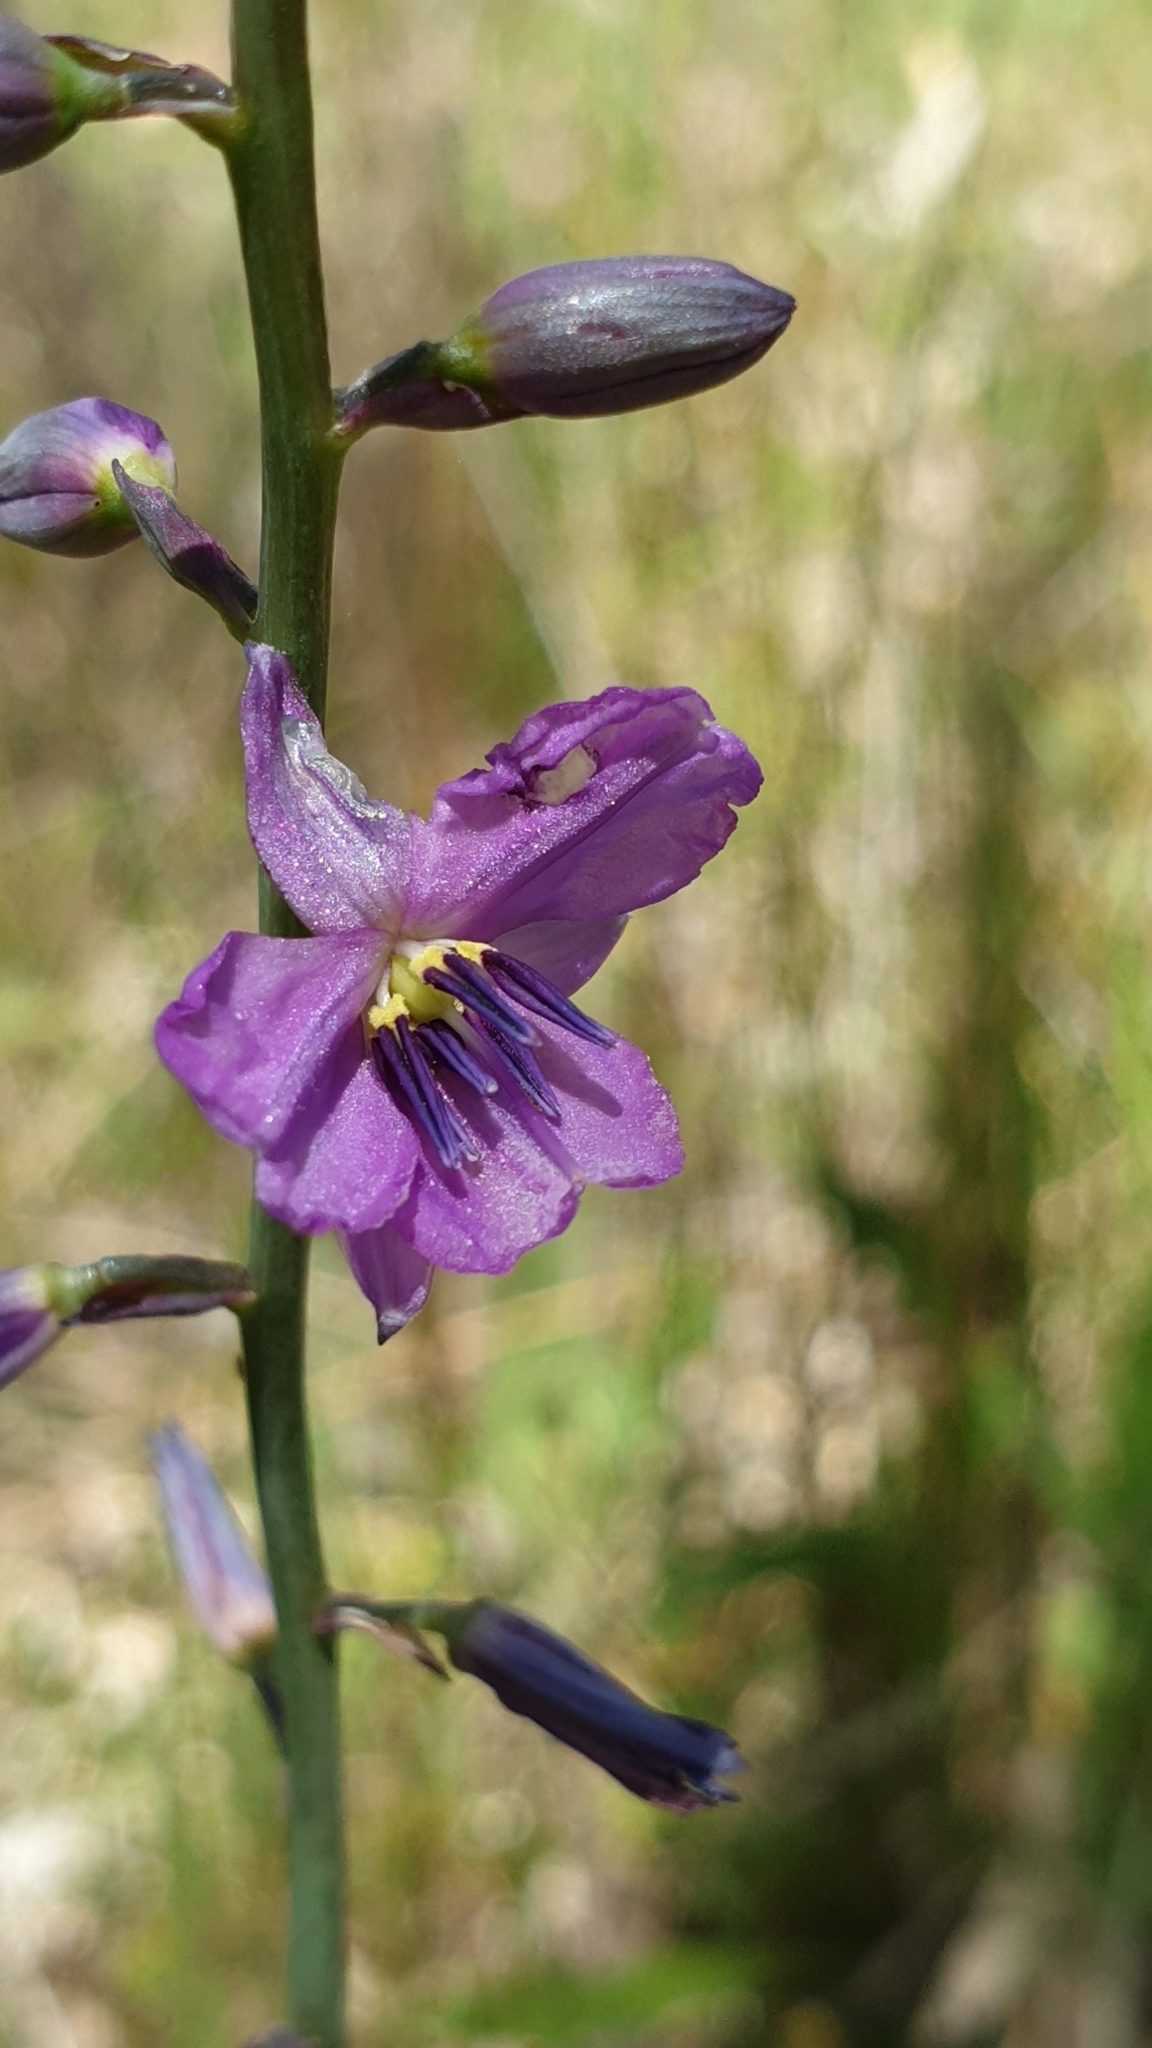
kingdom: Plantae
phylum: Tracheophyta
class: Liliopsida
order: Asparagales
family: Asparagaceae
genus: Arthropodium
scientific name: Arthropodium strictum
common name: Chocolate-lily
